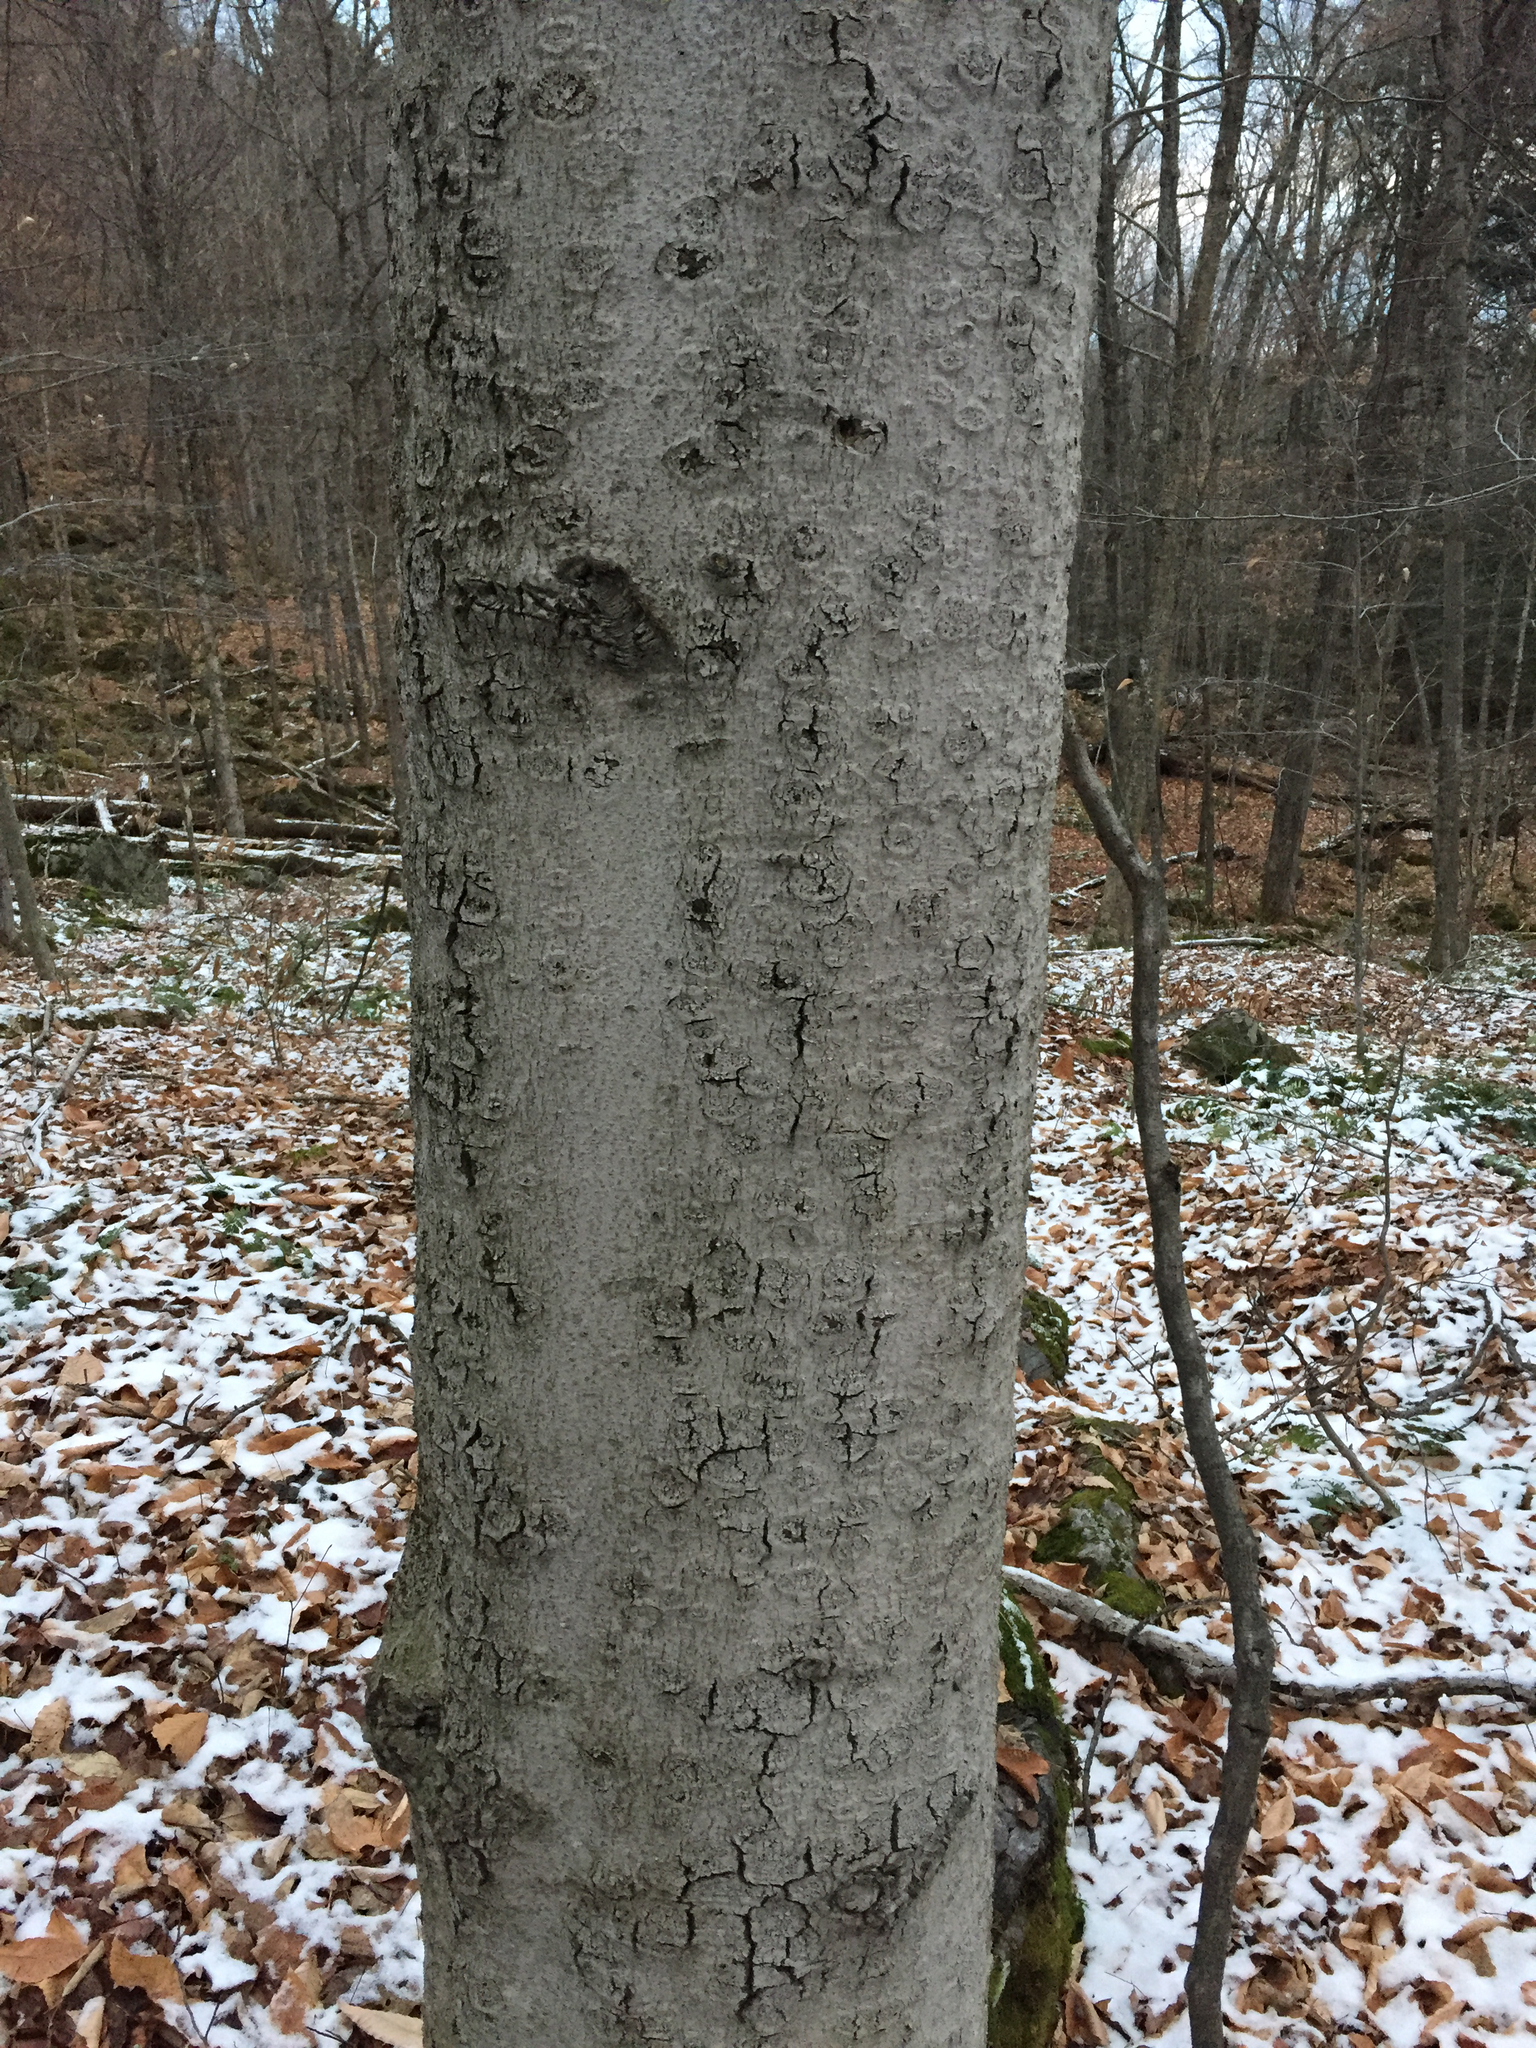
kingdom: Plantae
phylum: Tracheophyta
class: Magnoliopsida
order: Fagales
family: Fagaceae
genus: Fagus
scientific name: Fagus grandifolia
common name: American beech
